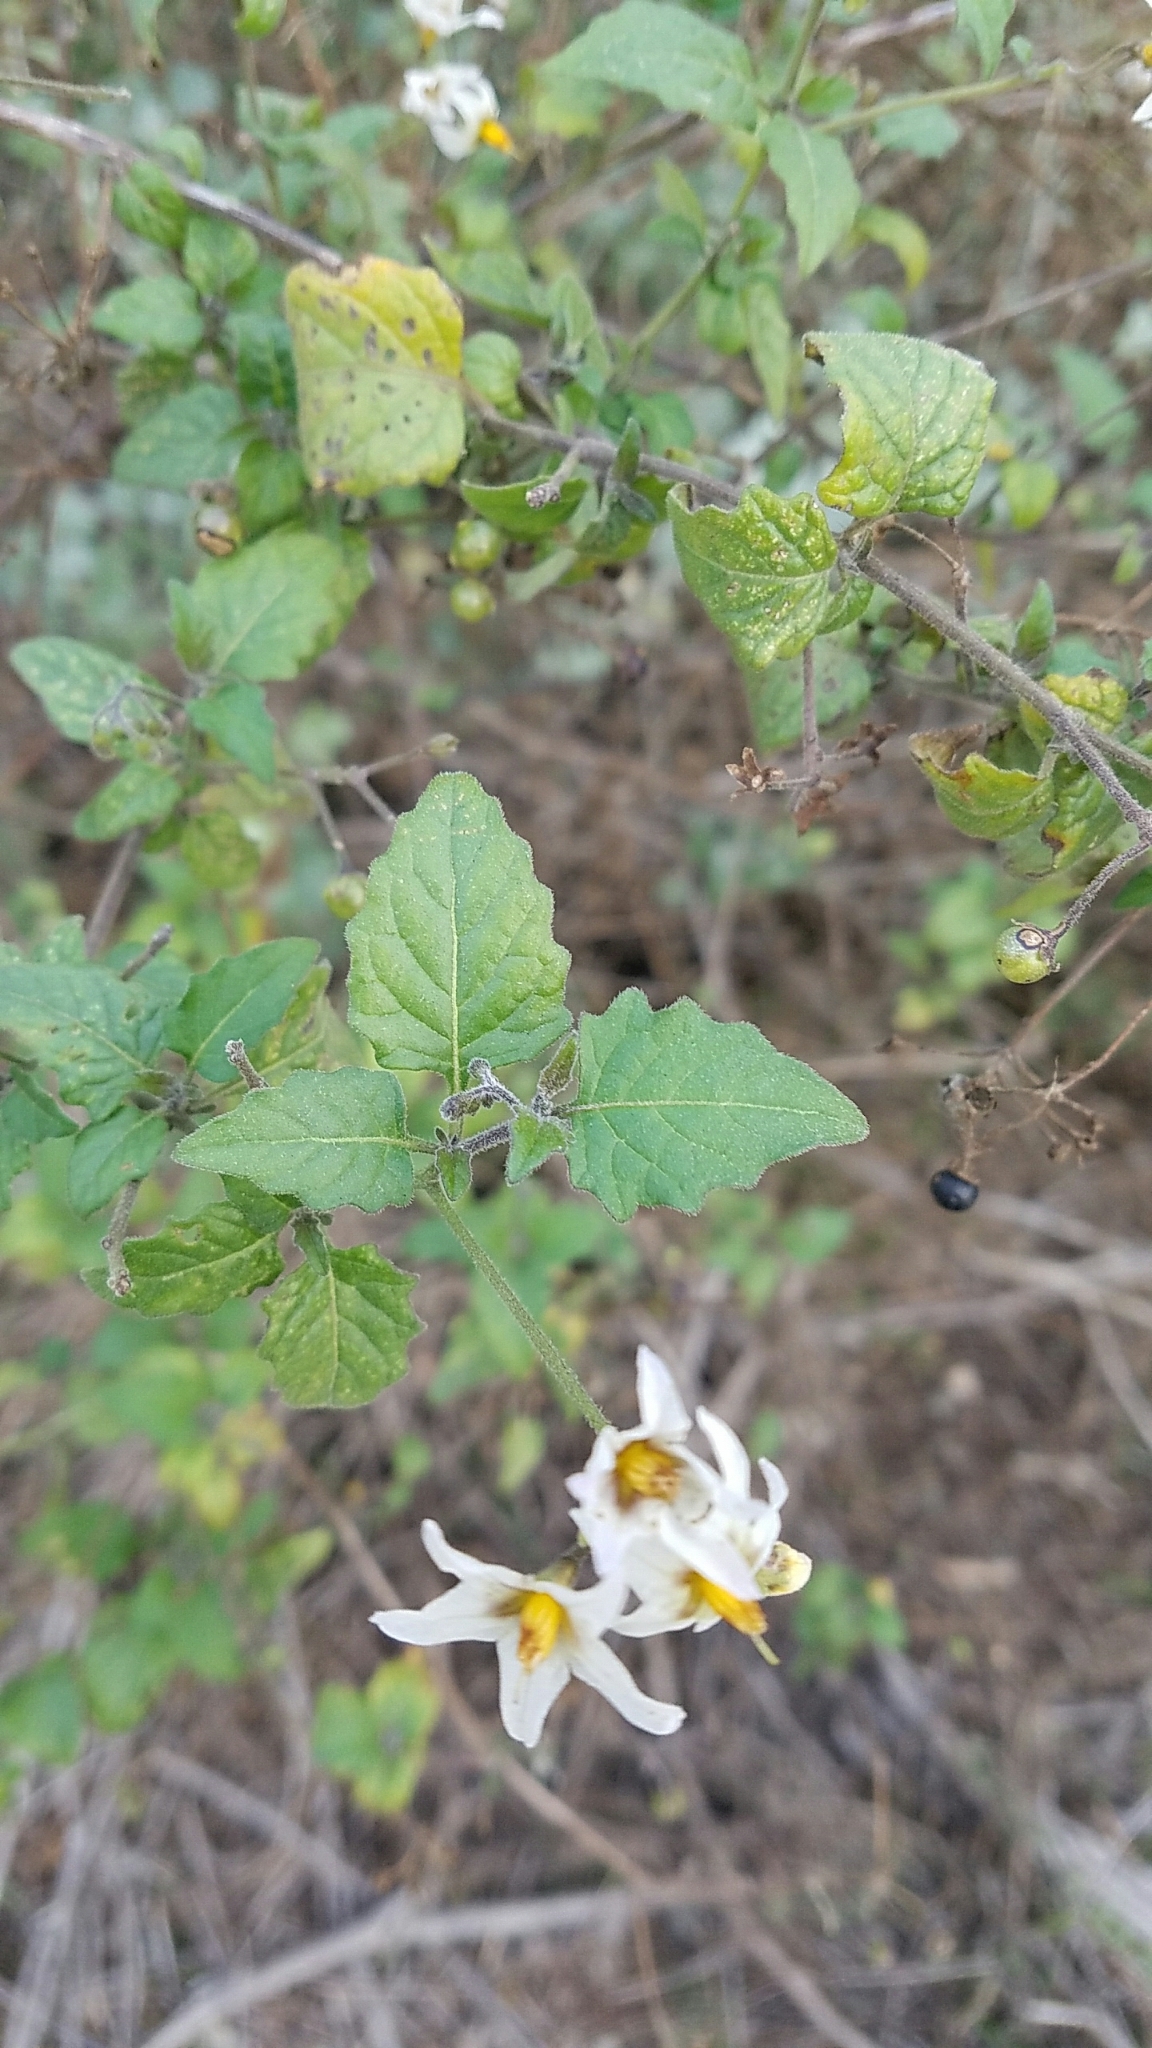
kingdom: Plantae
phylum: Tracheophyta
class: Magnoliopsida
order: Solanales
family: Solanaceae
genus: Solanum
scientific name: Solanum douglasii
